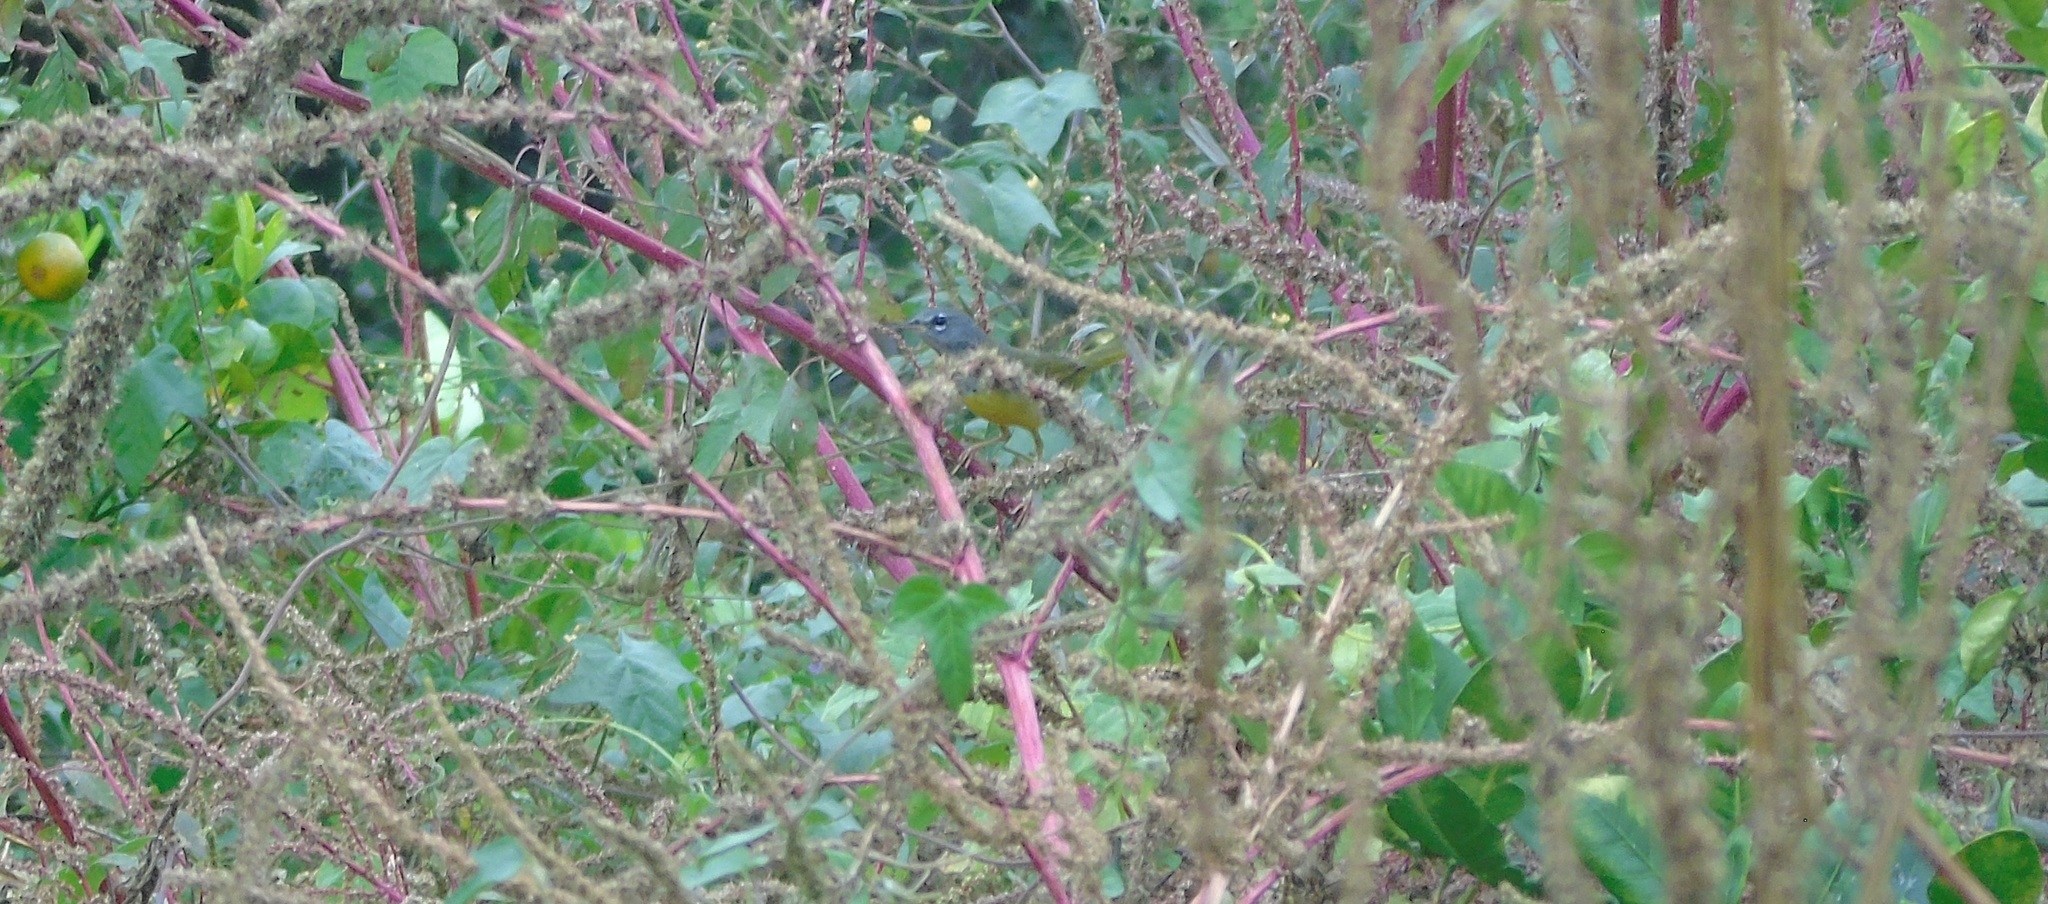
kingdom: Animalia
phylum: Chordata
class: Aves
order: Passeriformes
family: Parulidae
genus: Geothlypis
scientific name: Geothlypis tolmiei
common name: Macgillivray's warbler
